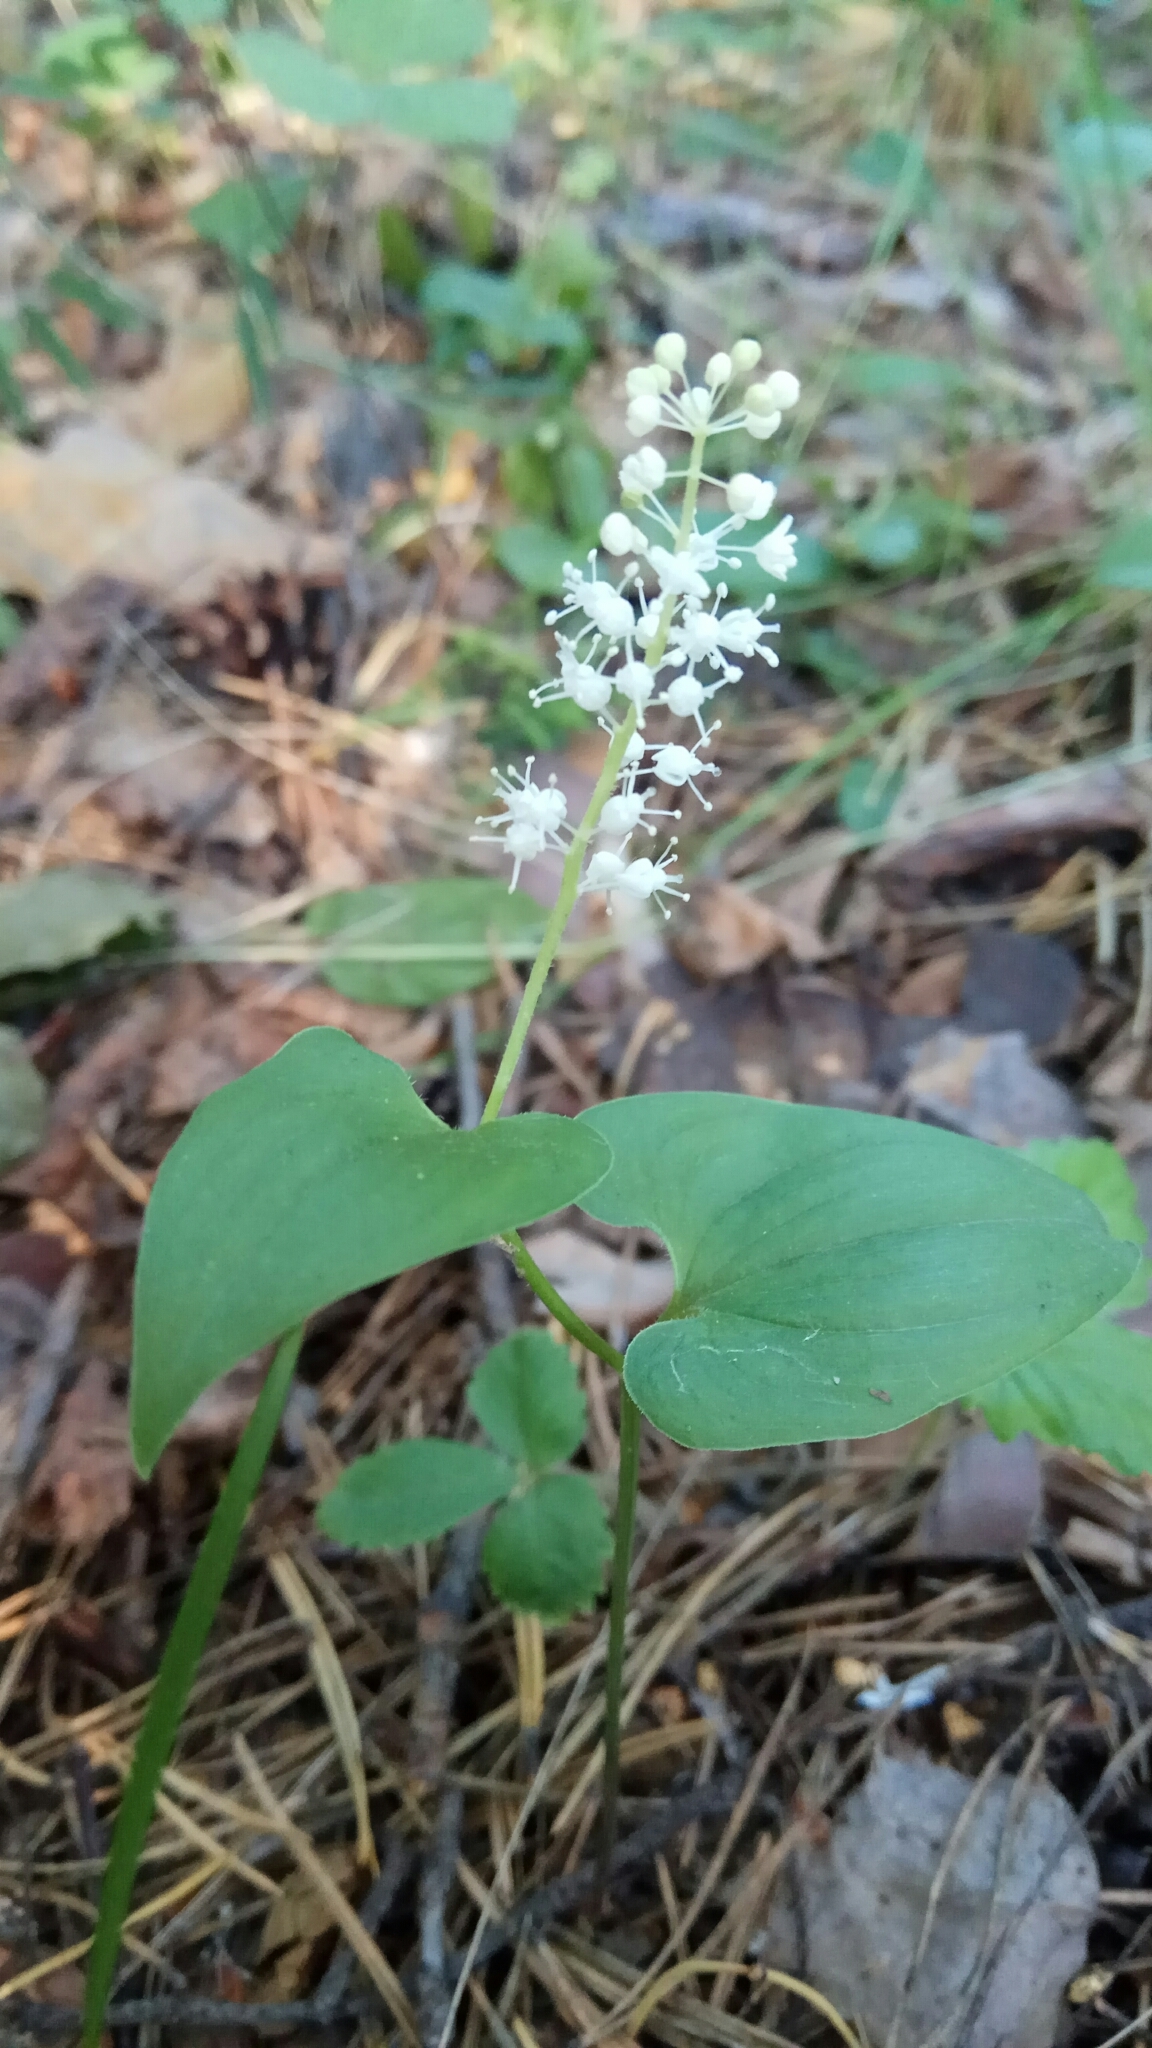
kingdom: Plantae
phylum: Tracheophyta
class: Liliopsida
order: Asparagales
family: Asparagaceae
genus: Maianthemum
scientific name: Maianthemum bifolium
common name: May lily
